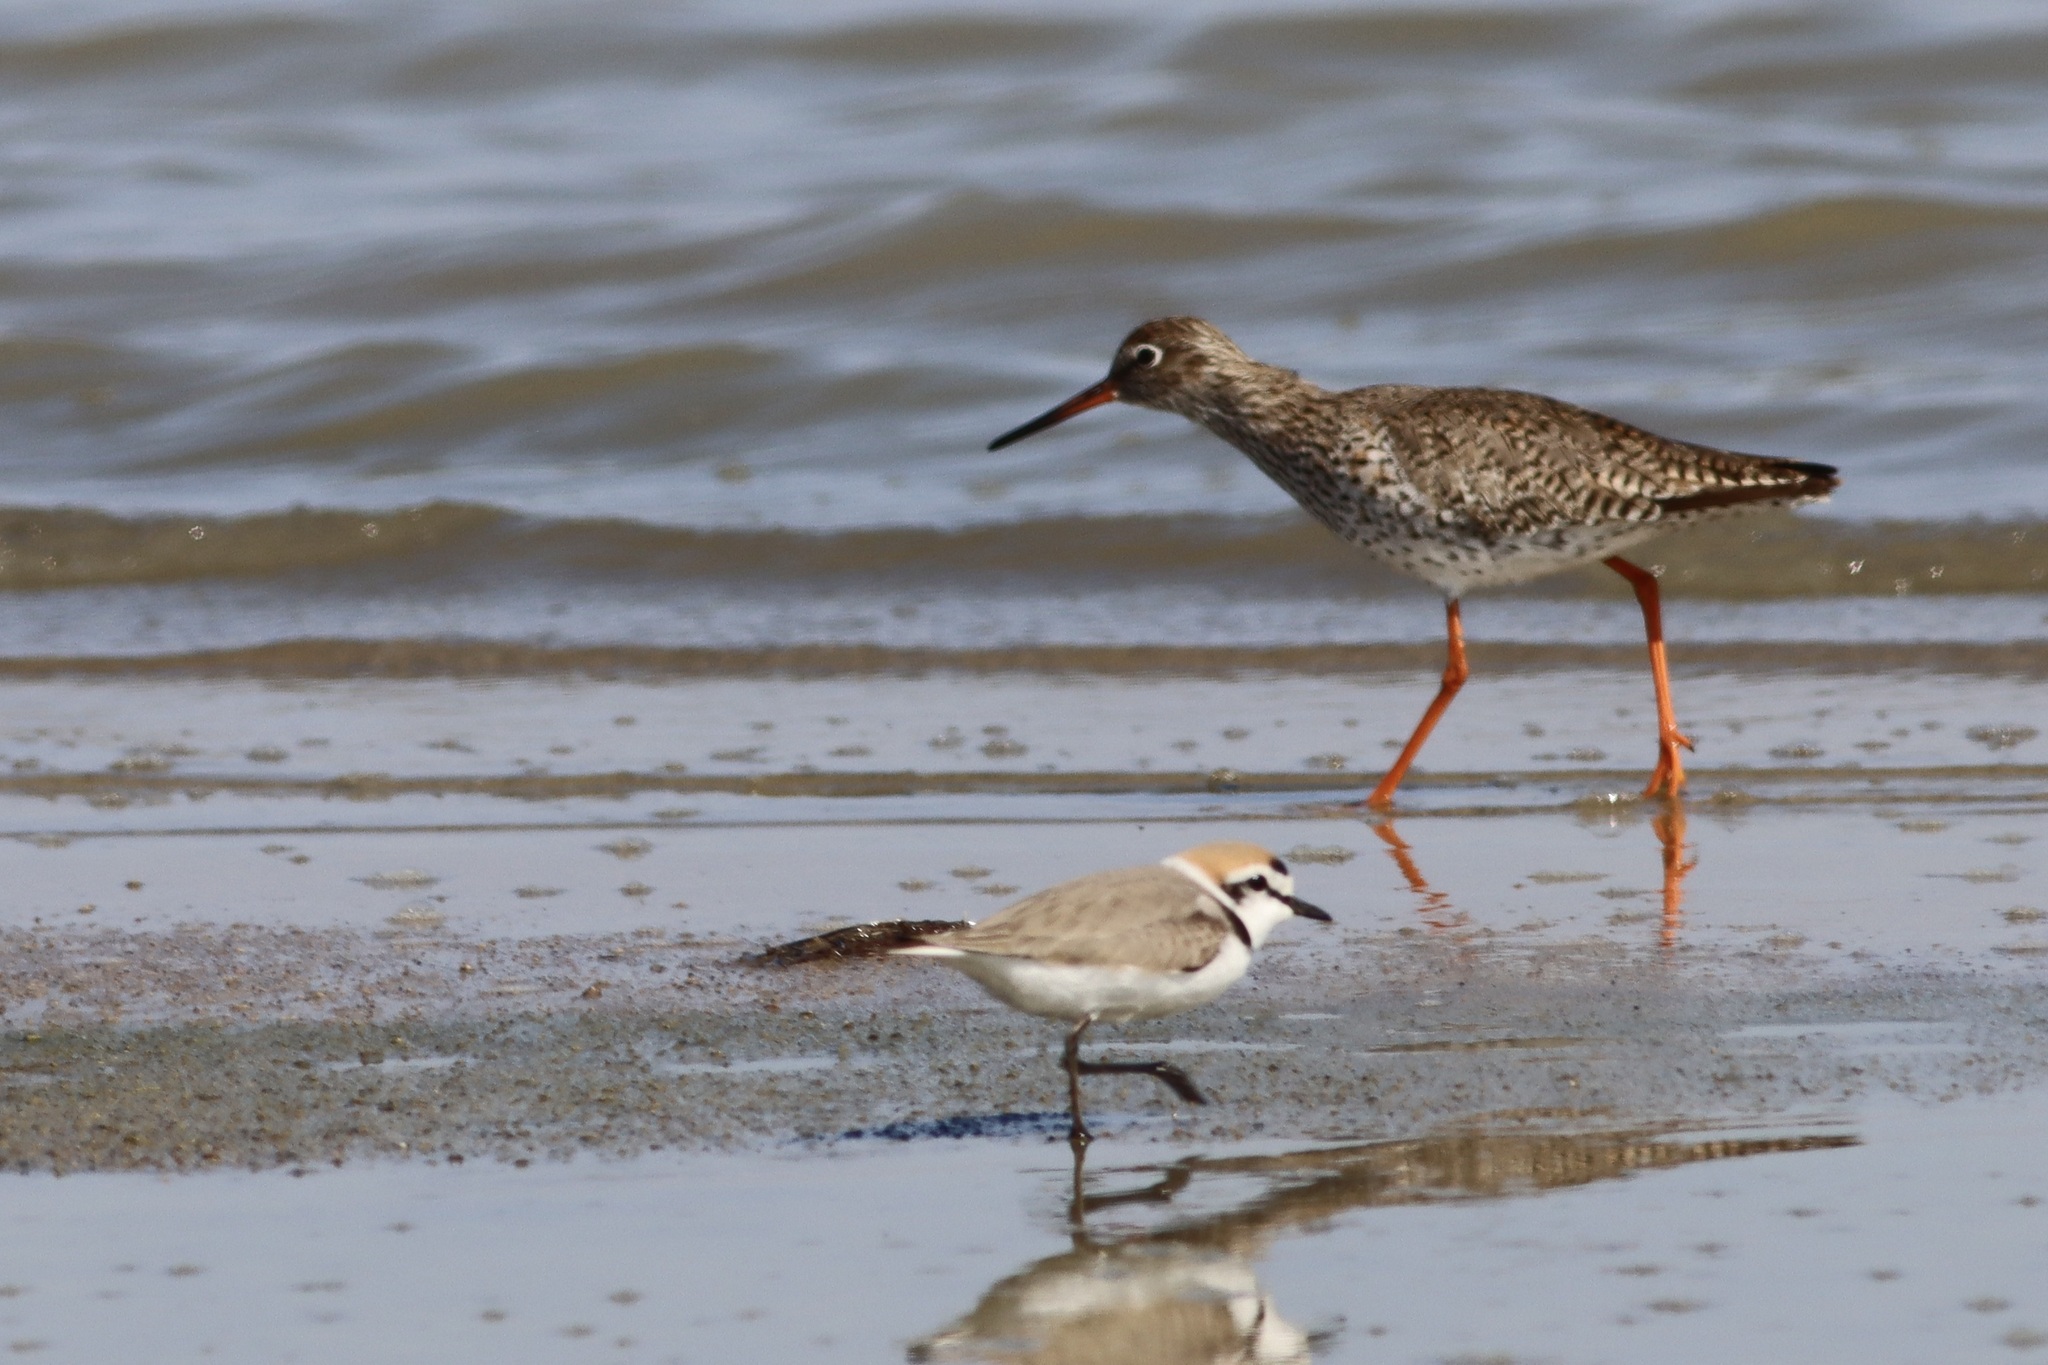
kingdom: Animalia
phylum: Chordata
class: Aves
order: Charadriiformes
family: Charadriidae
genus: Charadrius
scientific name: Charadrius alexandrinus
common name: Kentish plover
